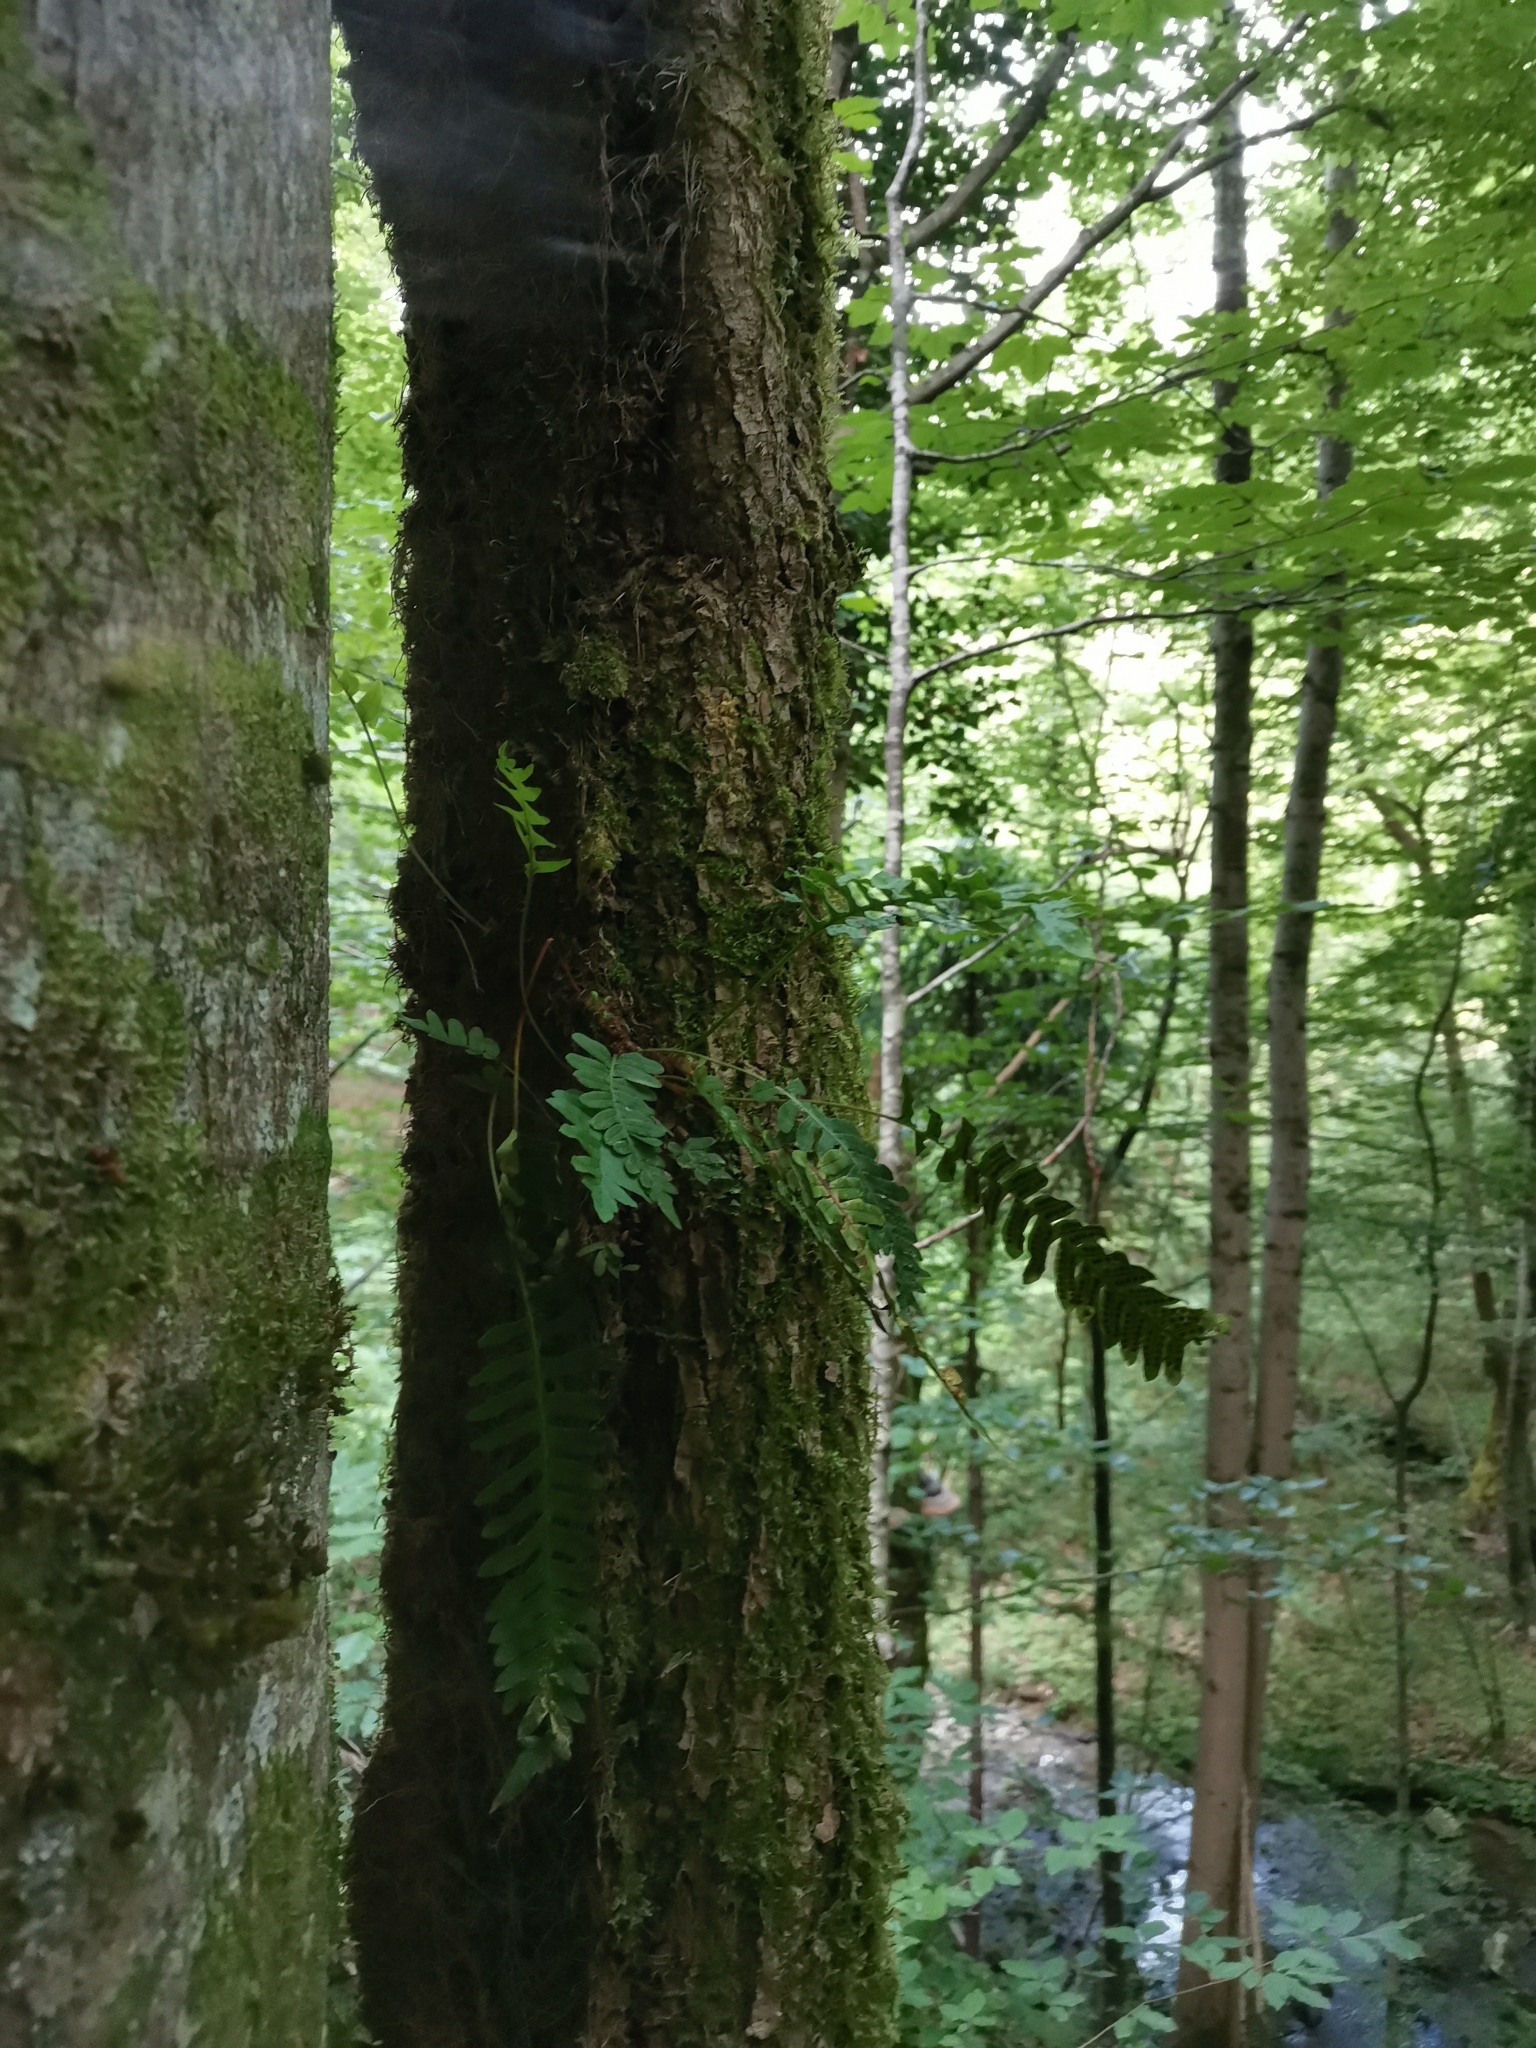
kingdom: Plantae
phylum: Tracheophyta
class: Polypodiopsida
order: Polypodiales
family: Polypodiaceae
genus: Polypodium
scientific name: Polypodium vulgare
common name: Common polypody
